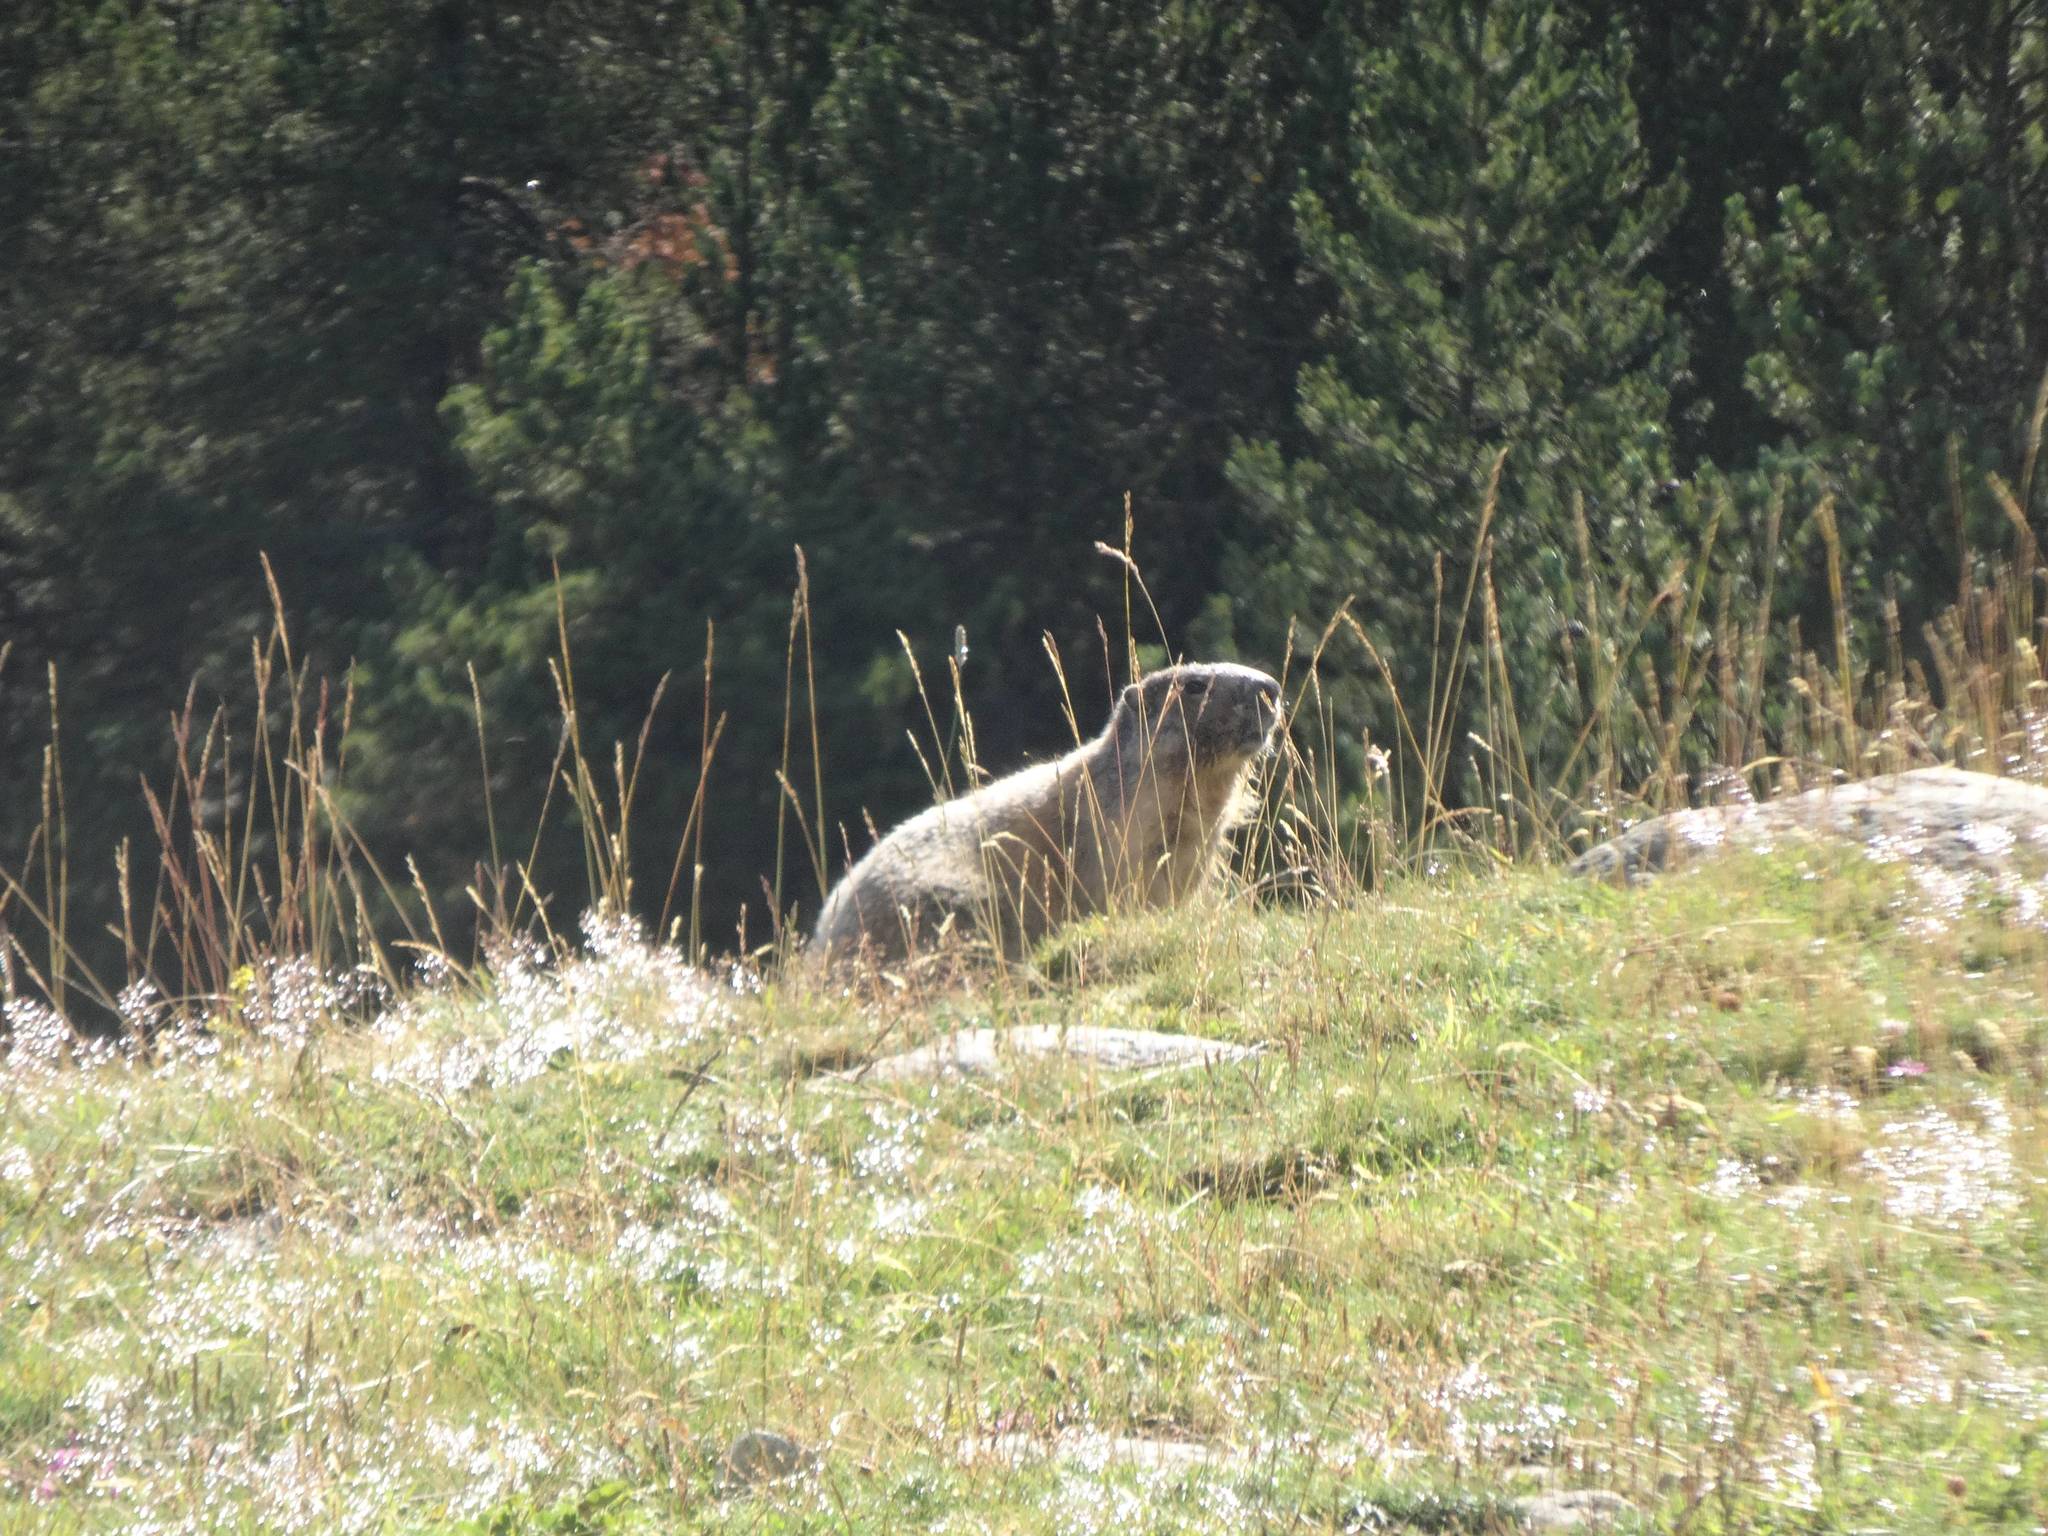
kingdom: Animalia
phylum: Chordata
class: Mammalia
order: Rodentia
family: Sciuridae
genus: Marmota
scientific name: Marmota marmota
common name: Alpine marmot
